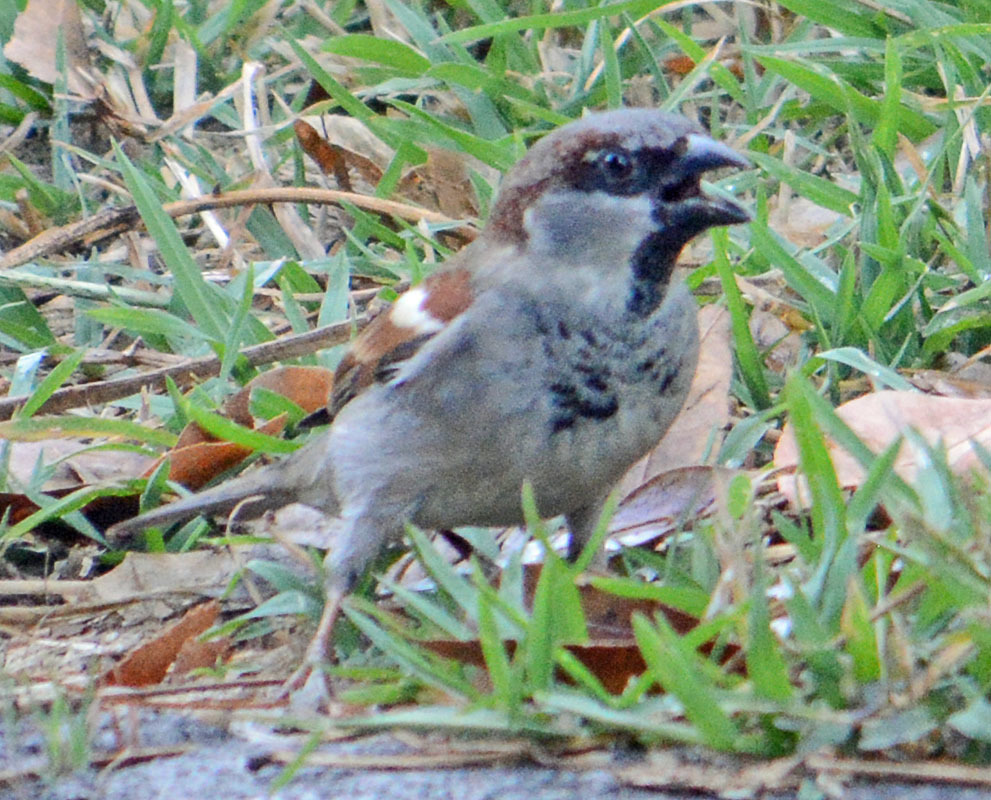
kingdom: Animalia
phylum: Chordata
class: Aves
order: Passeriformes
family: Passeridae
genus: Passer
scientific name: Passer domesticus
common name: House sparrow
